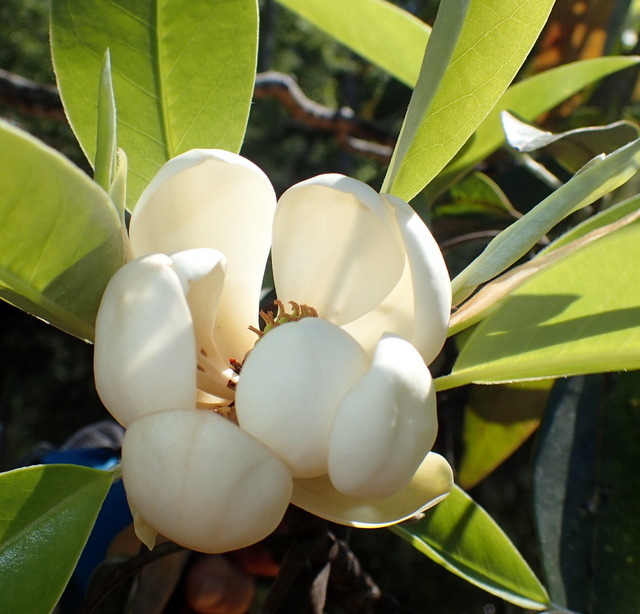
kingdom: Plantae
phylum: Tracheophyta
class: Magnoliopsida
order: Magnoliales
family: Magnoliaceae
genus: Magnolia
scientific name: Magnolia virginiana
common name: Swamp bay
